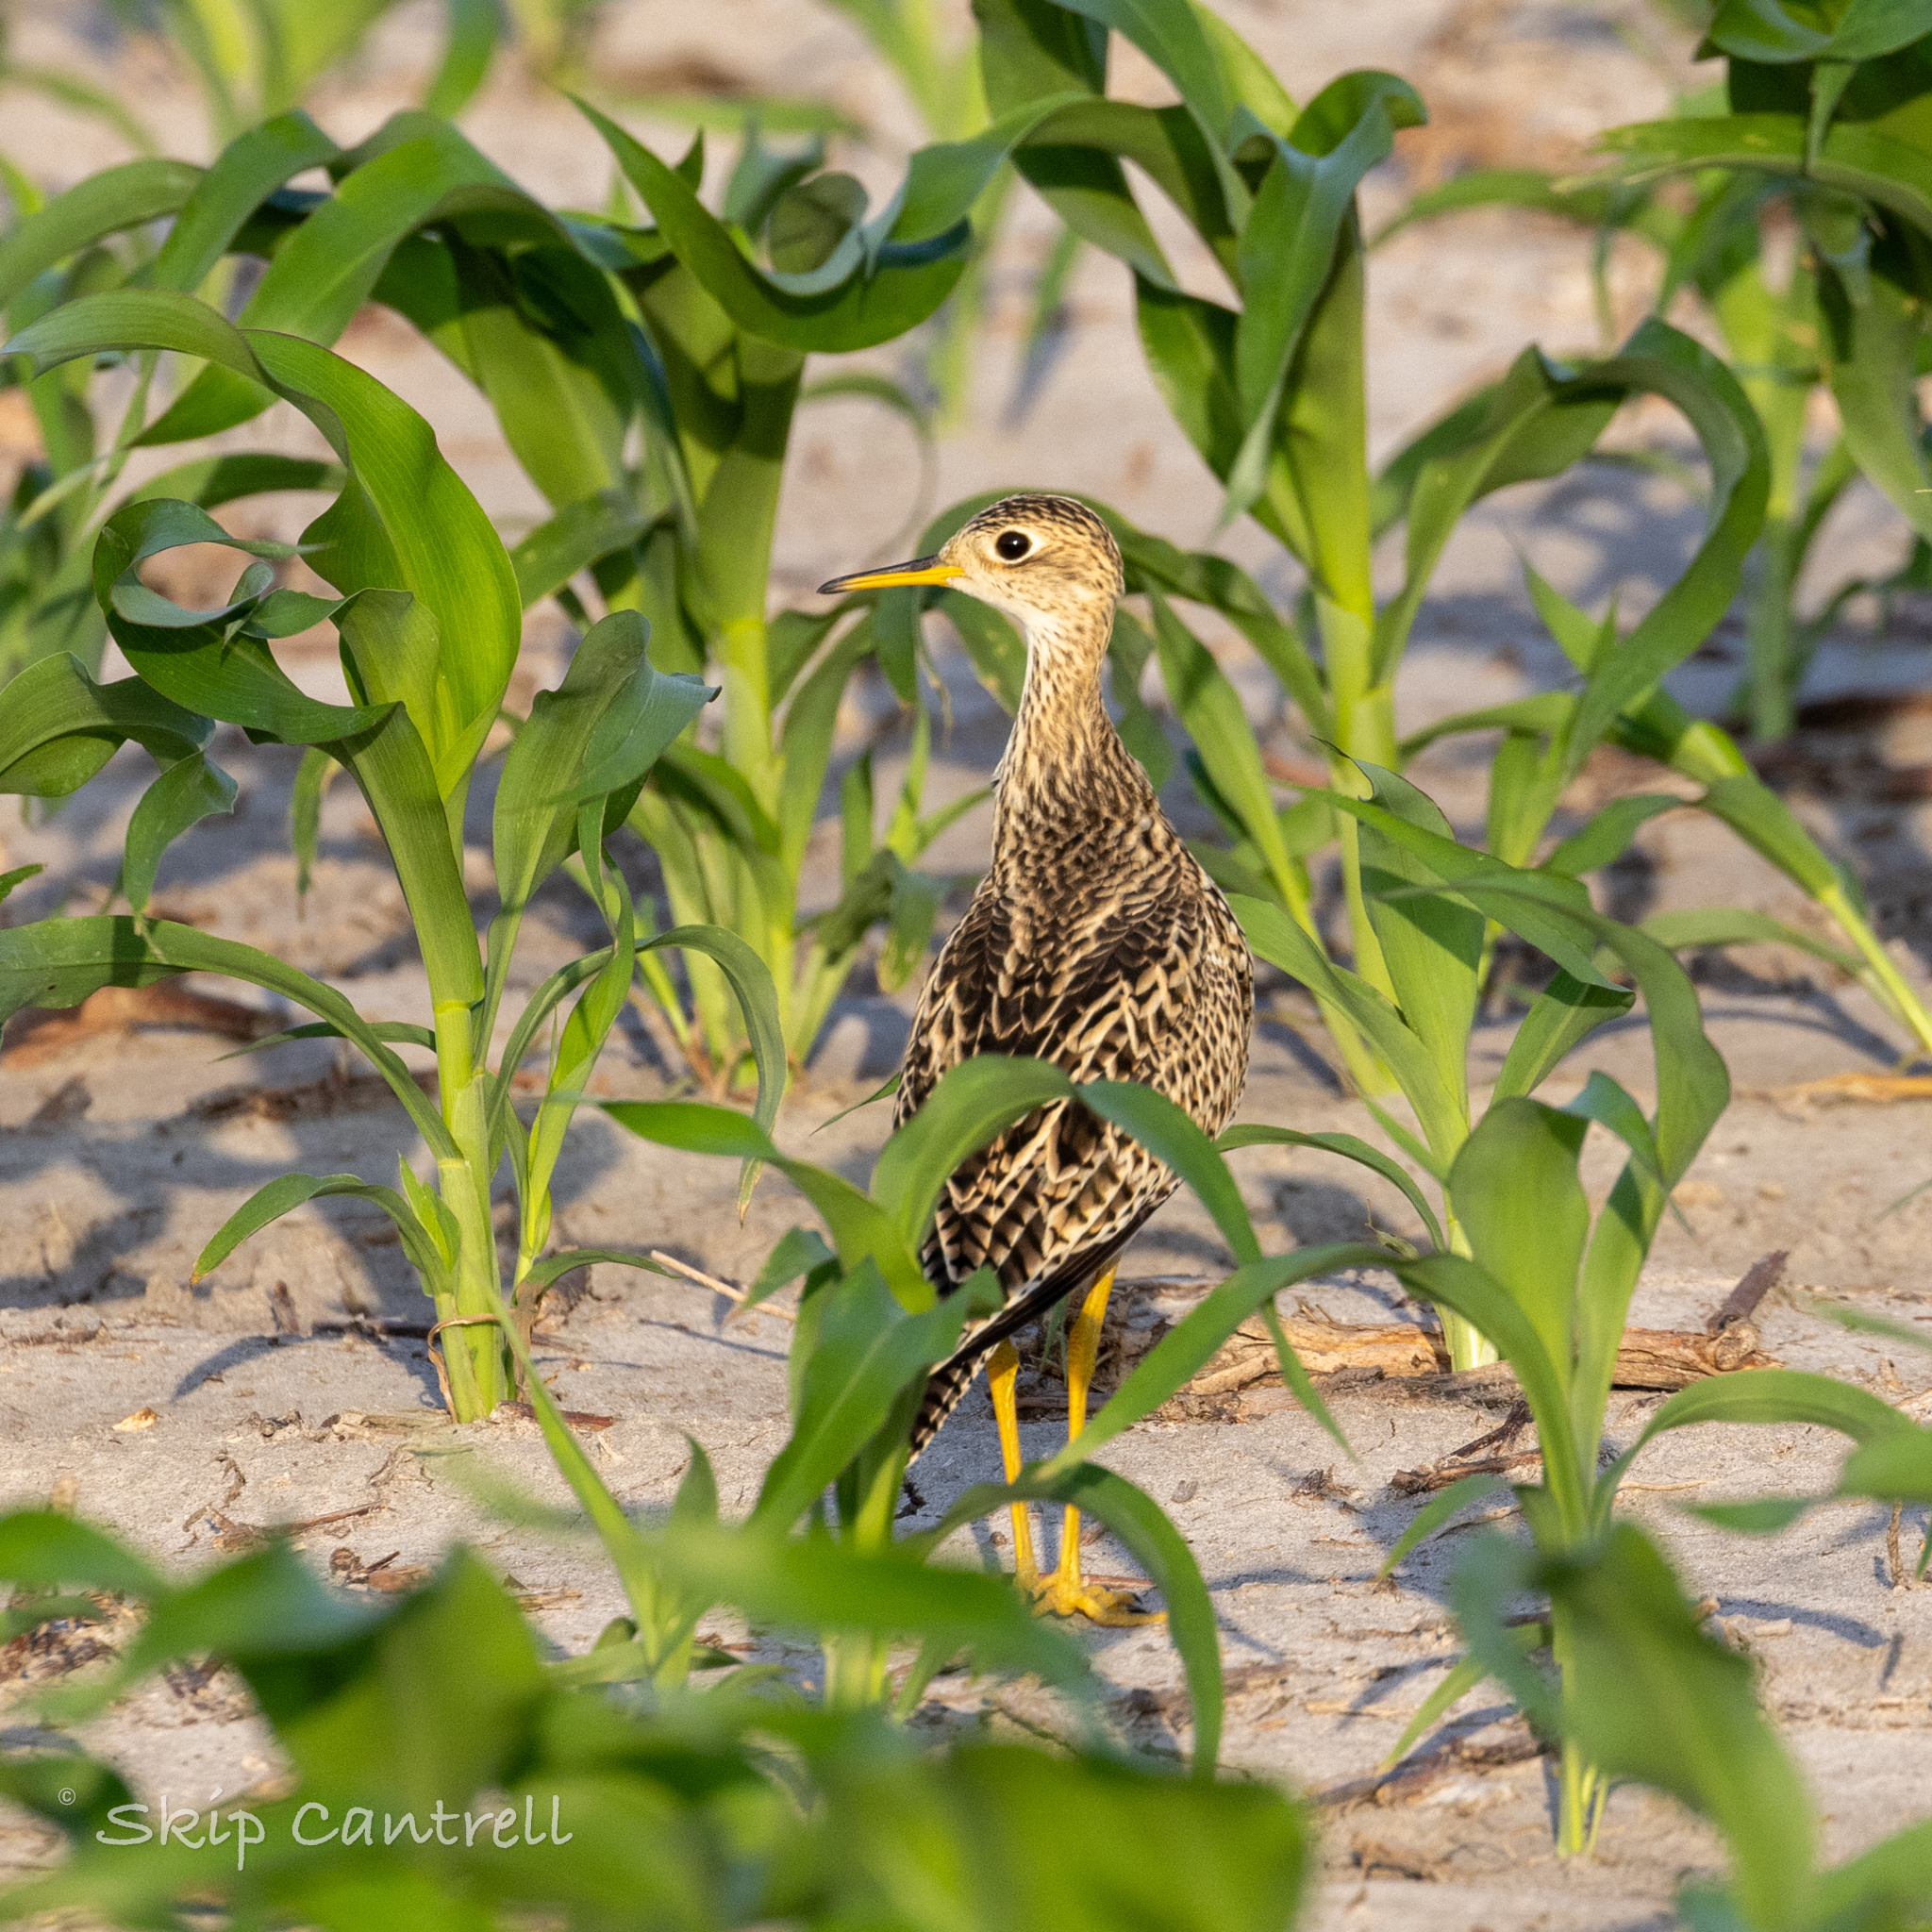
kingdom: Animalia
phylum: Chordata
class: Aves
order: Charadriiformes
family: Scolopacidae
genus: Bartramia
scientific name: Bartramia longicauda
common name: Upland sandpiper
